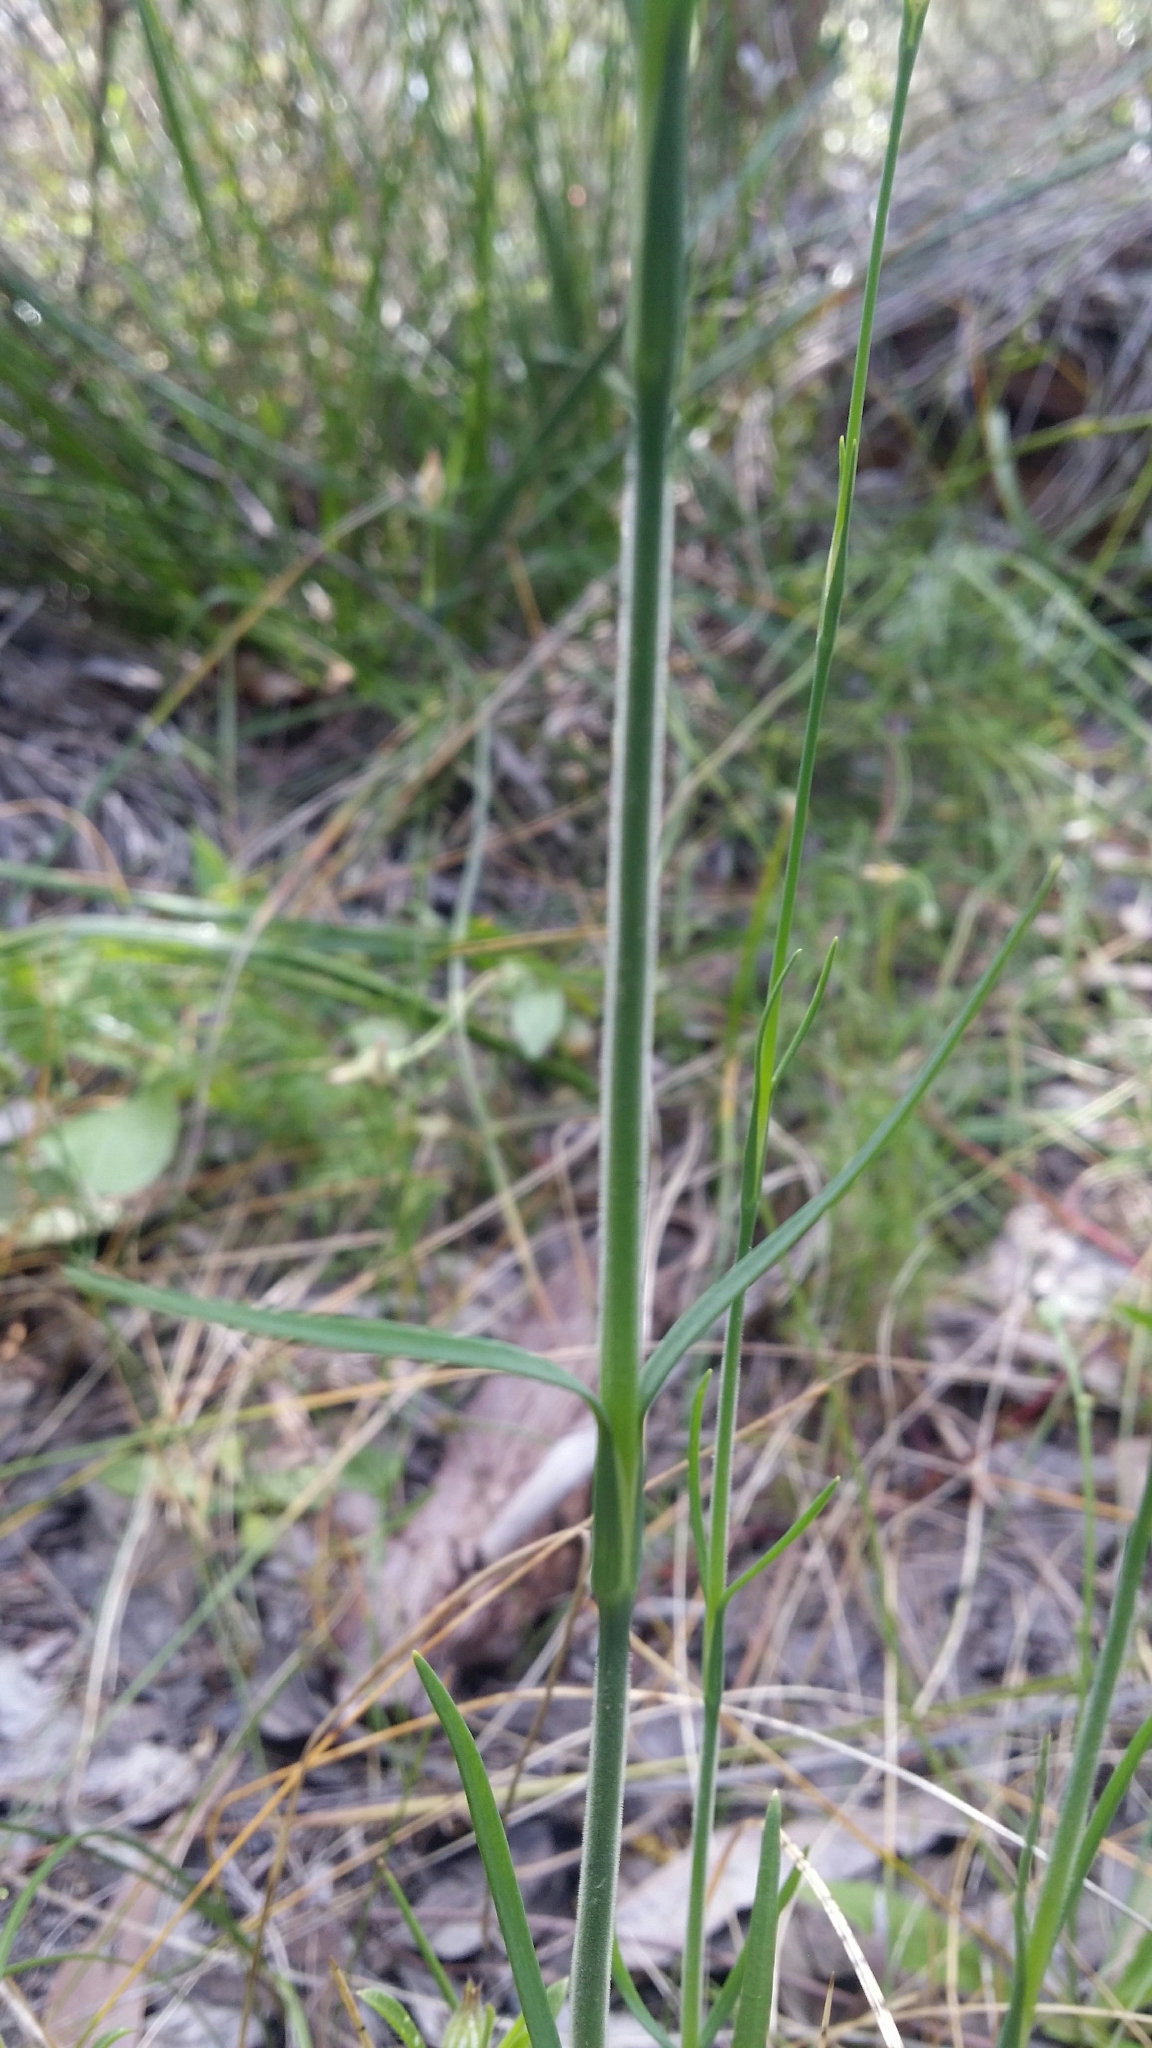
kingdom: Plantae
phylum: Tracheophyta
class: Magnoliopsida
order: Caryophyllales
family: Caryophyllaceae
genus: Petrorhagia
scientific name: Petrorhagia dubia
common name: Hairypink
